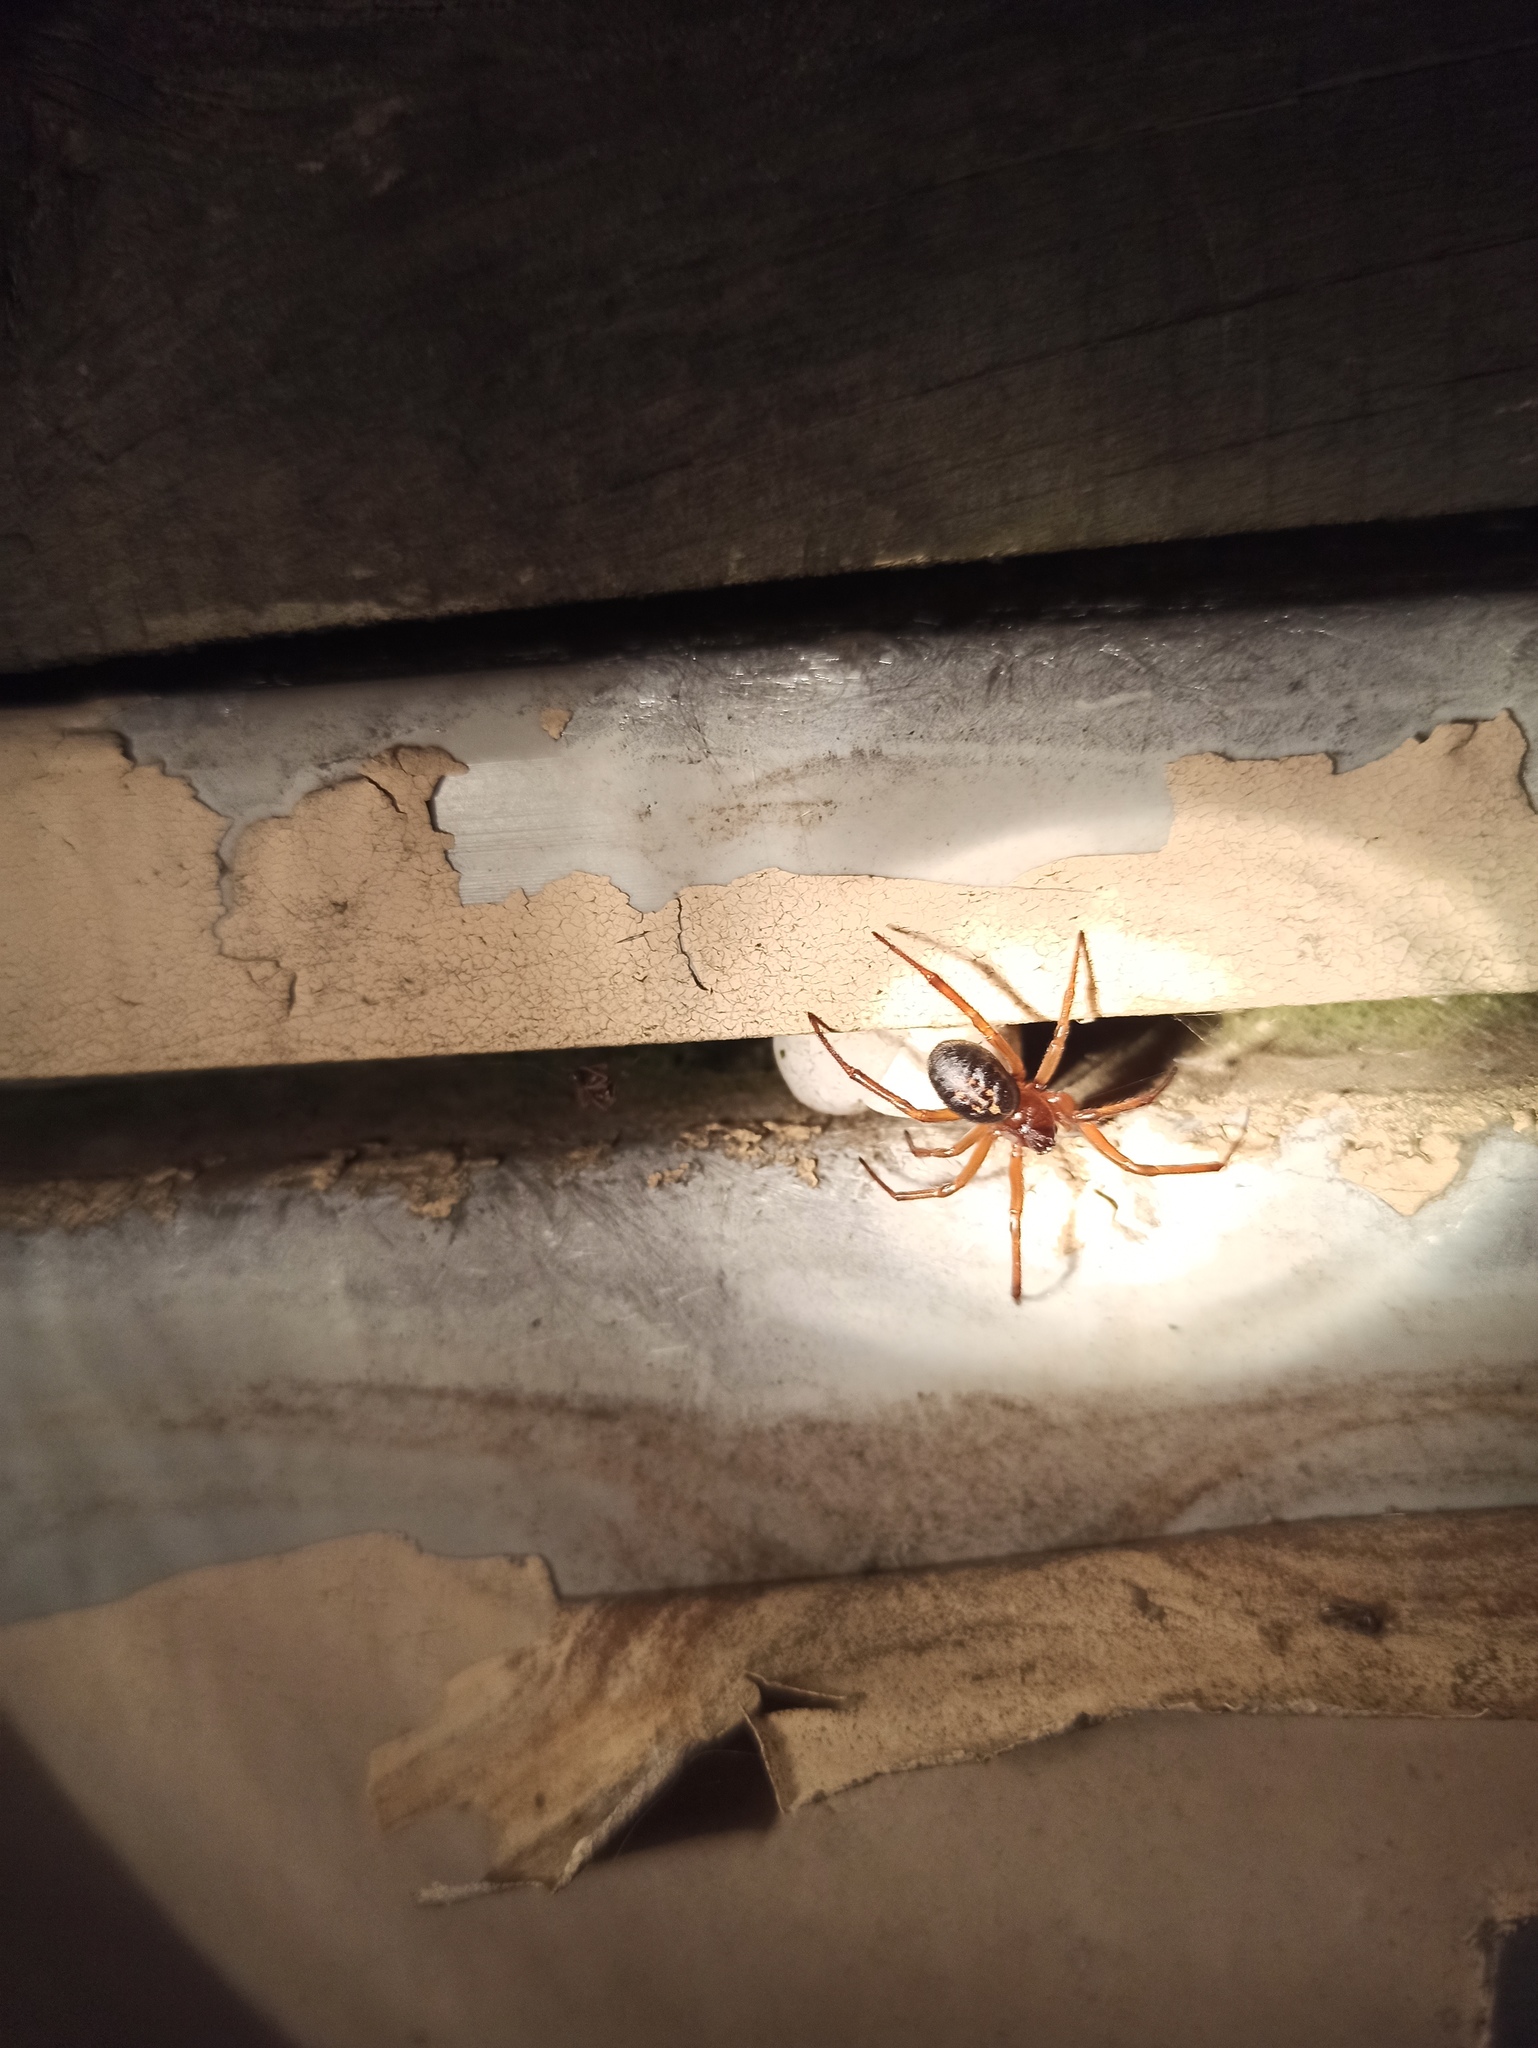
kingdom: Animalia
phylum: Arthropoda
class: Arachnida
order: Araneae
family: Theridiidae
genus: Steatoda
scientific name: Steatoda nobilis
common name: Cobweb weaver
